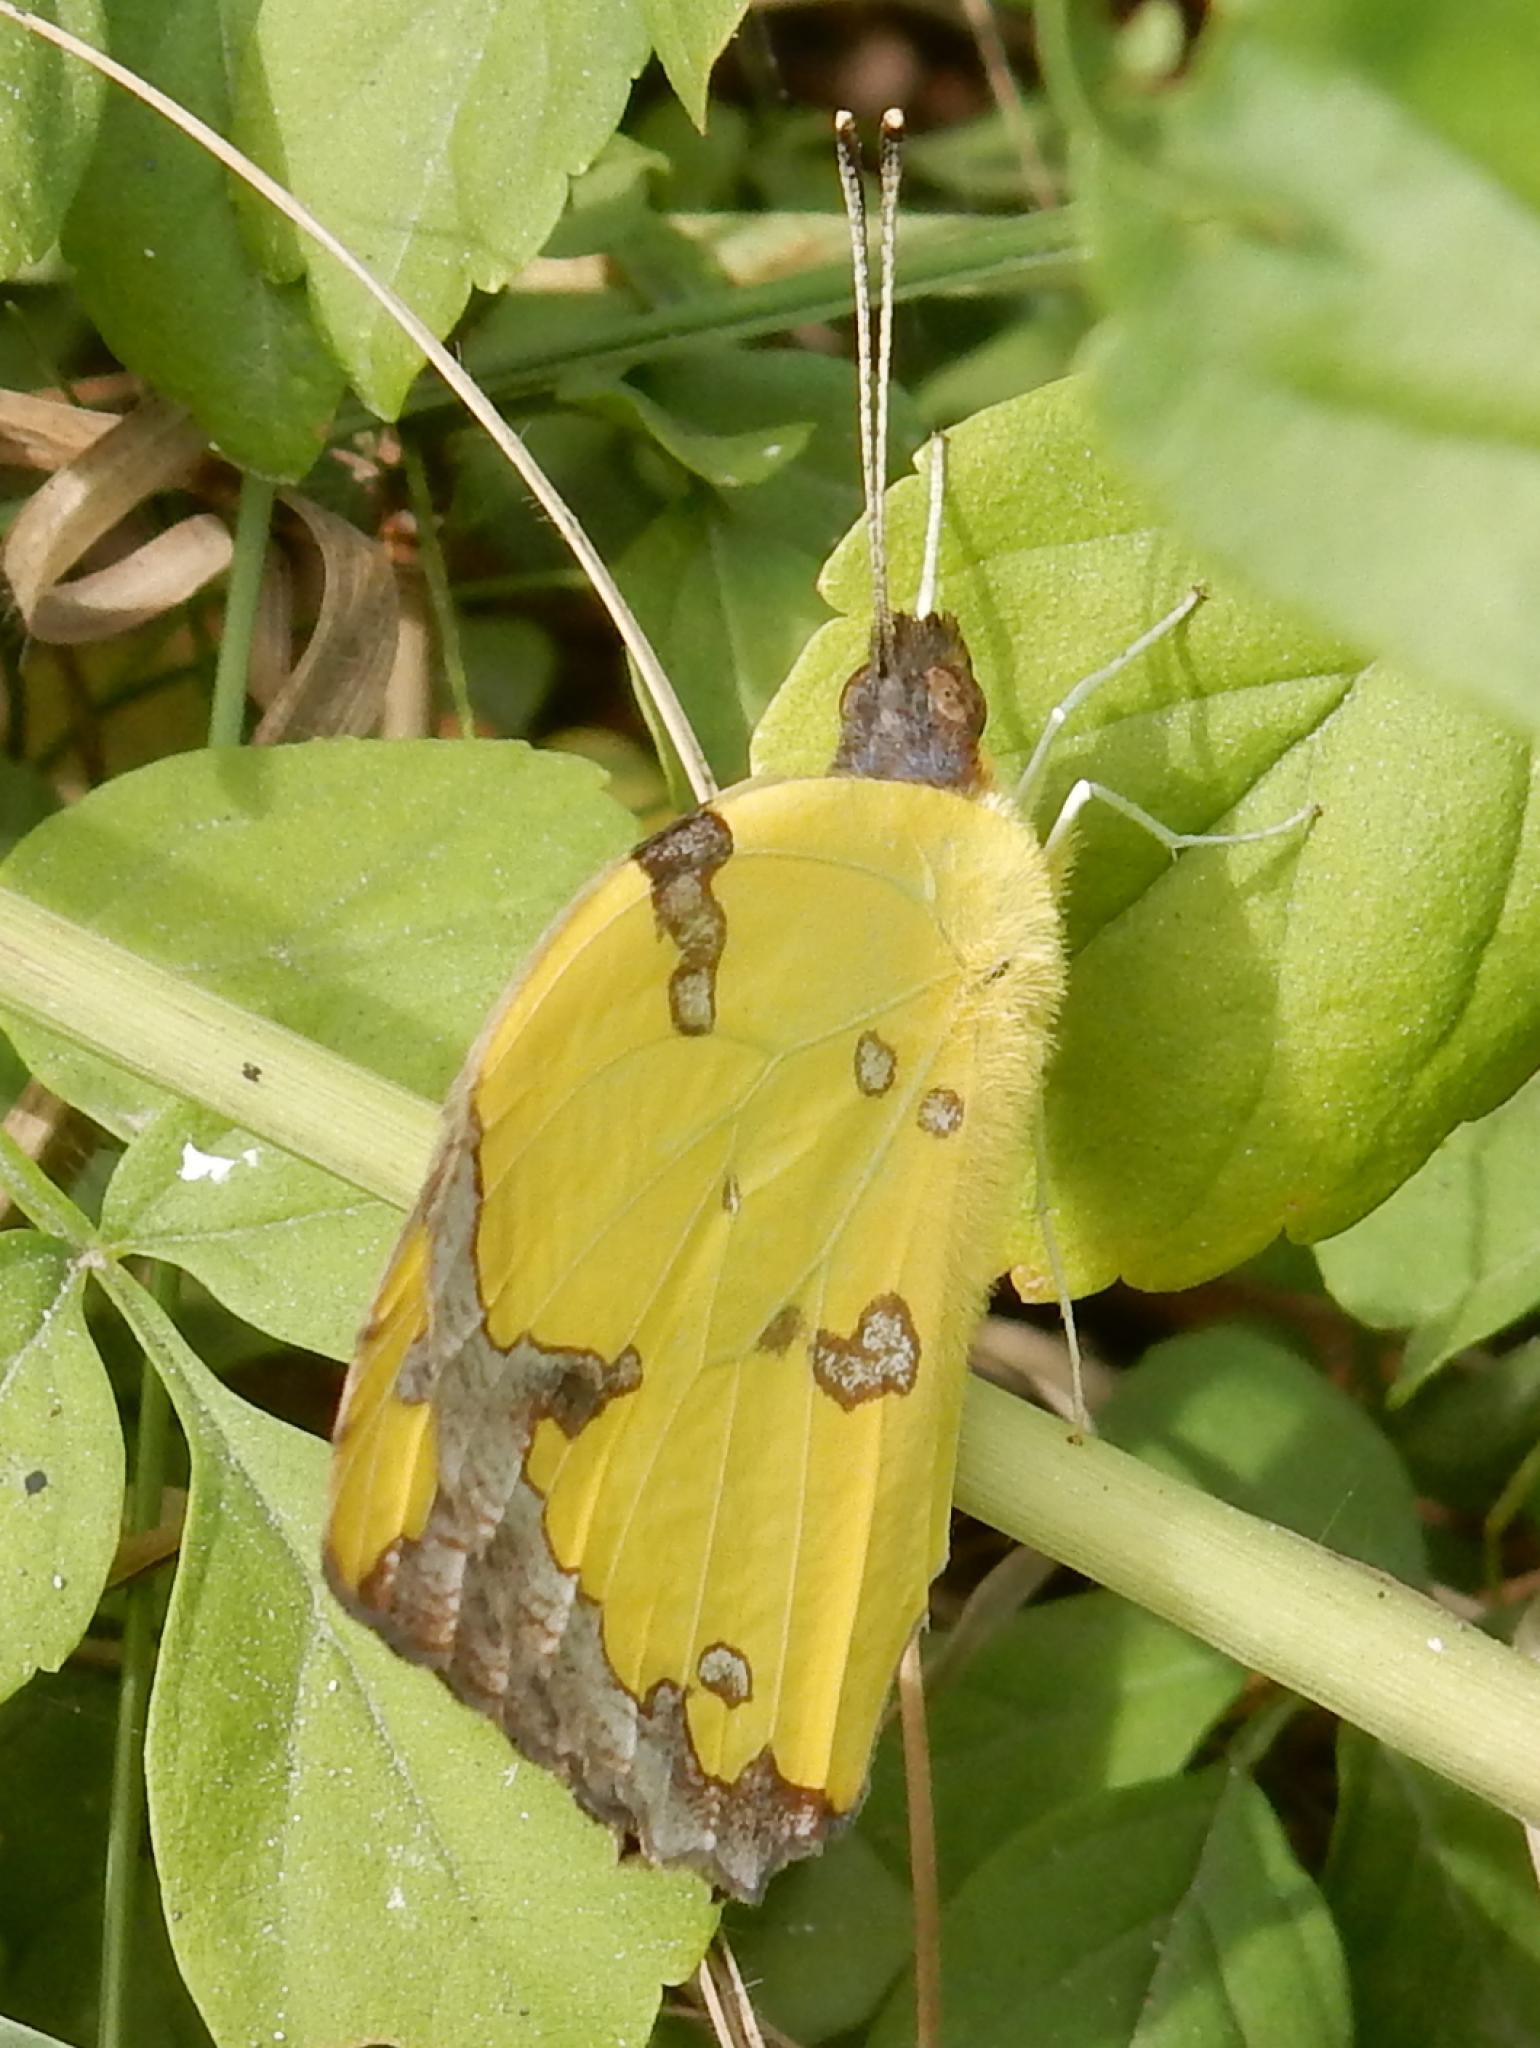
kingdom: Animalia
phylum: Arthropoda
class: Insecta
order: Lepidoptera
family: Pieridae
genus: Eronia
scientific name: Eronia cleodora
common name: Vine-leaf vagrant
